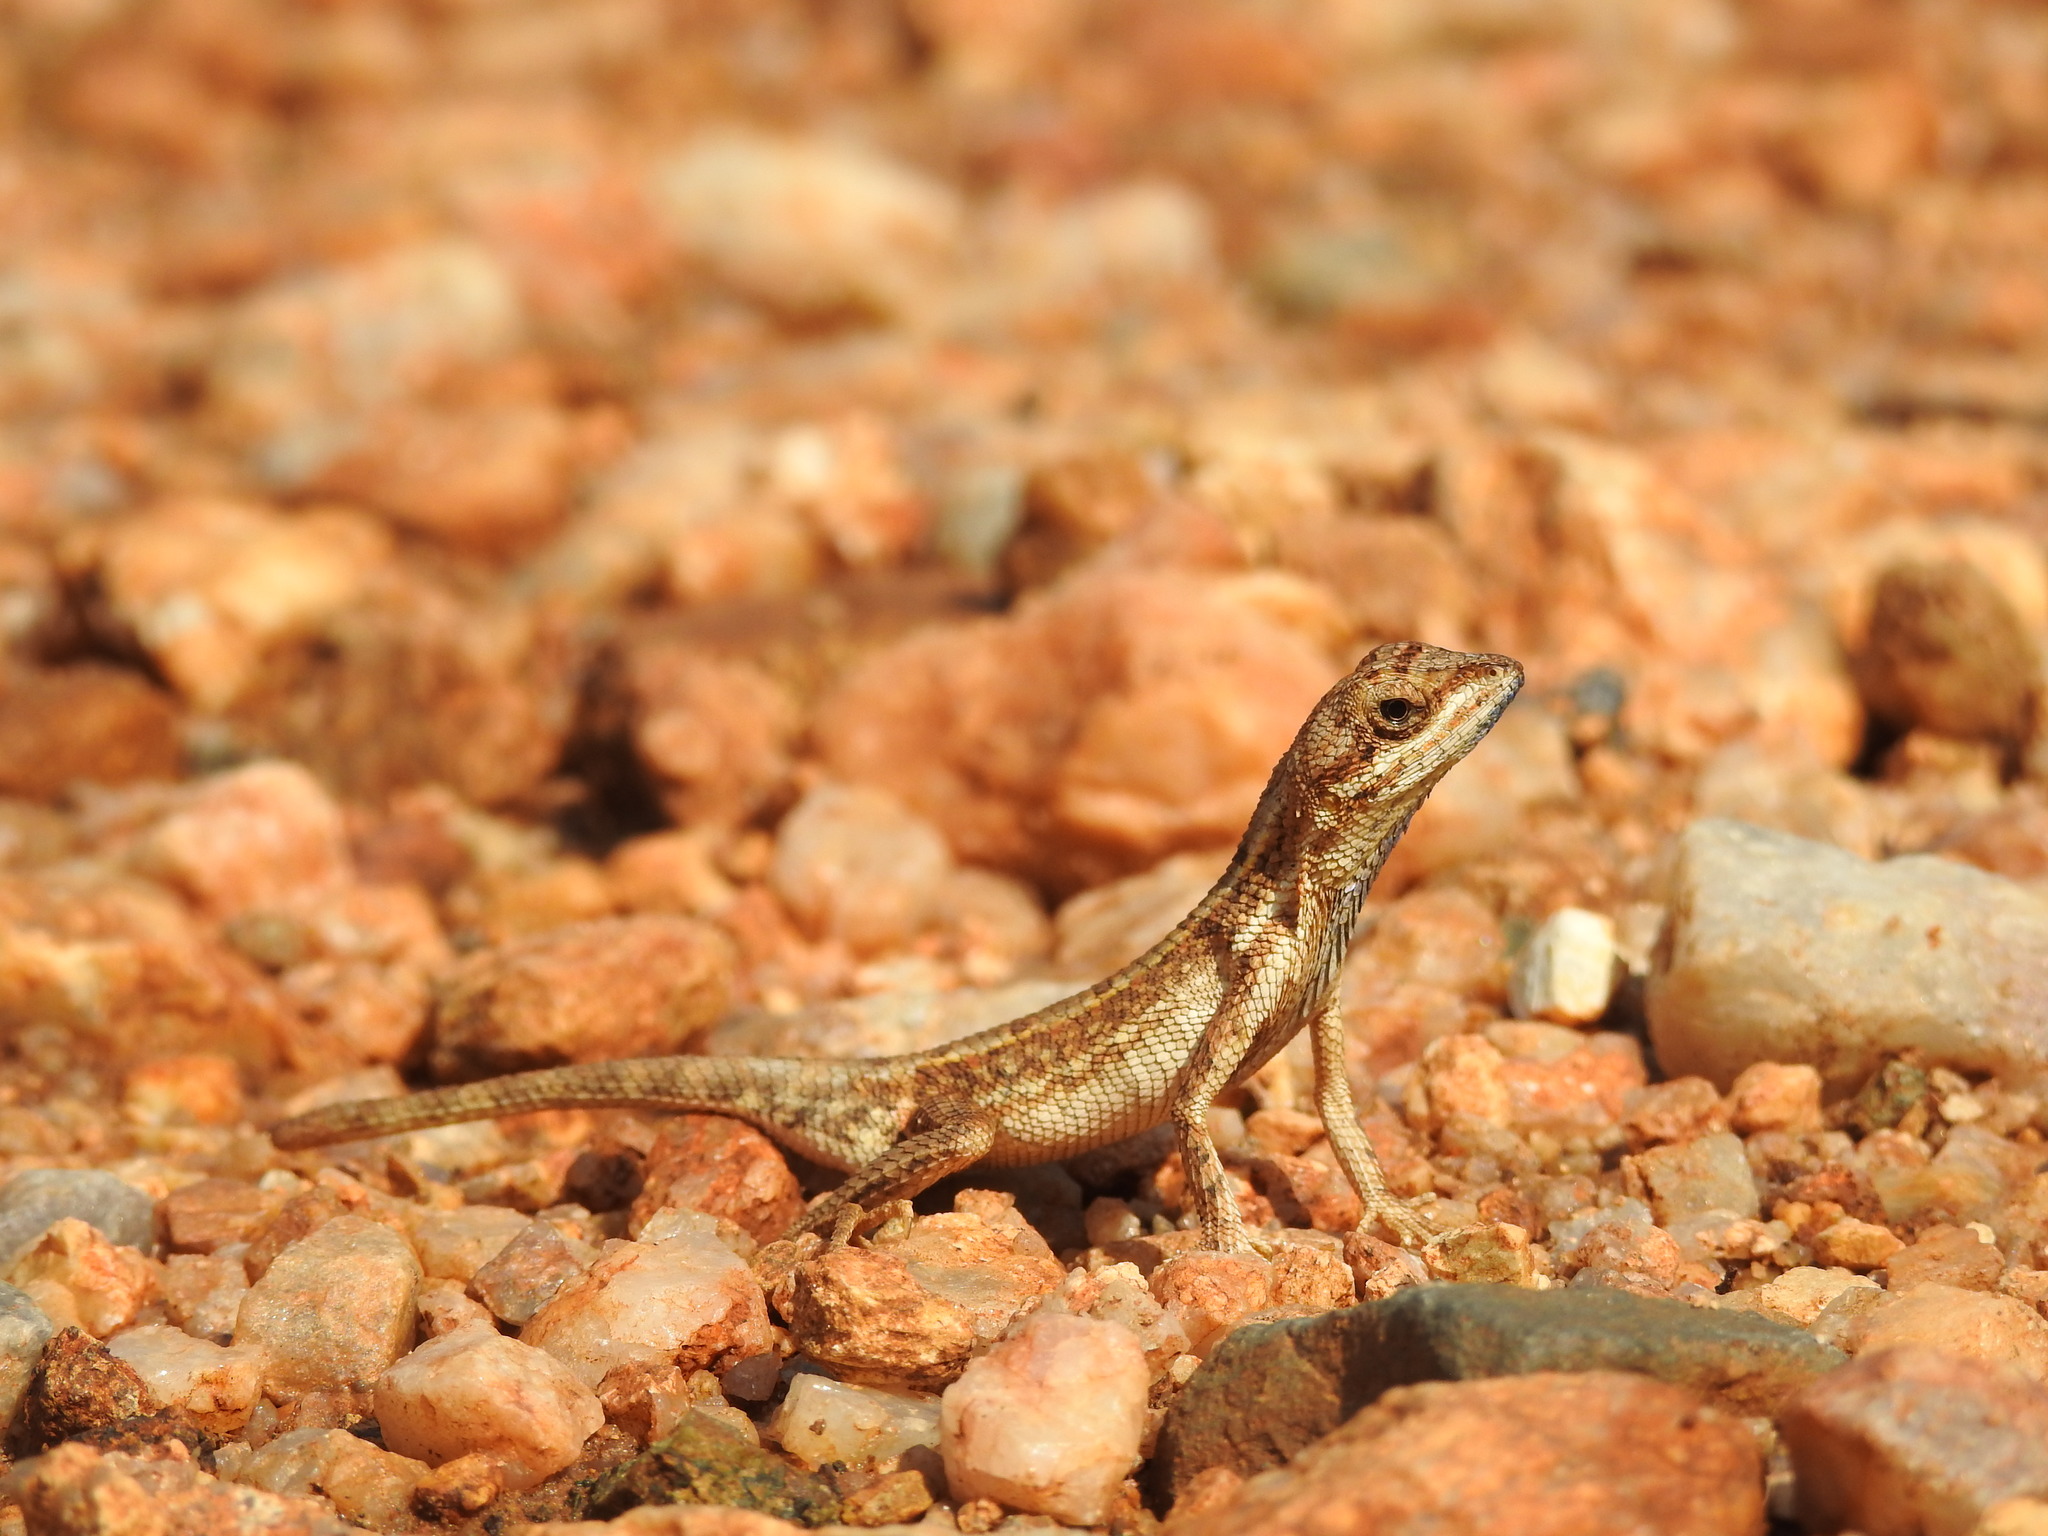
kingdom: Animalia
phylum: Chordata
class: Squamata
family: Agamidae
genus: Sitana
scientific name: Sitana ponticeriana
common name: Pondichéry fan throated lizard
